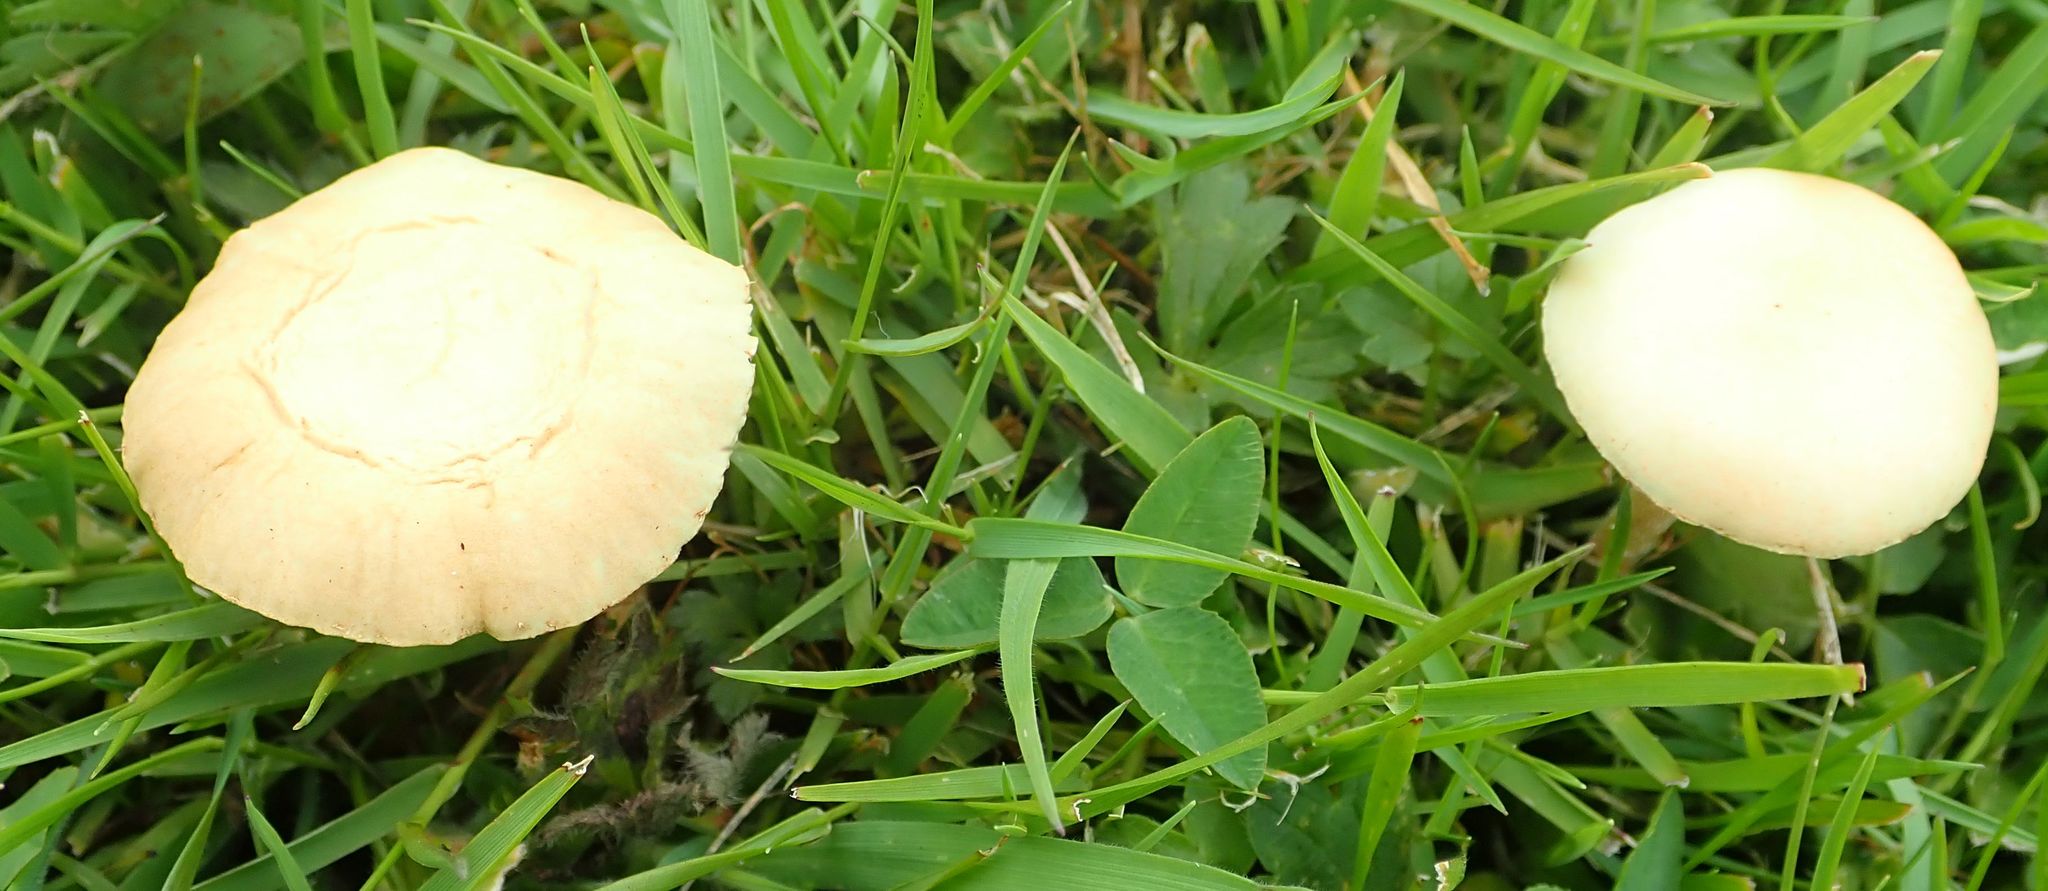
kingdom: Fungi
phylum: Basidiomycota
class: Agaricomycetes
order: Agaricales
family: Strophariaceae
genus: Agrocybe
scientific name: Agrocybe pediades
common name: Common fieldcap
